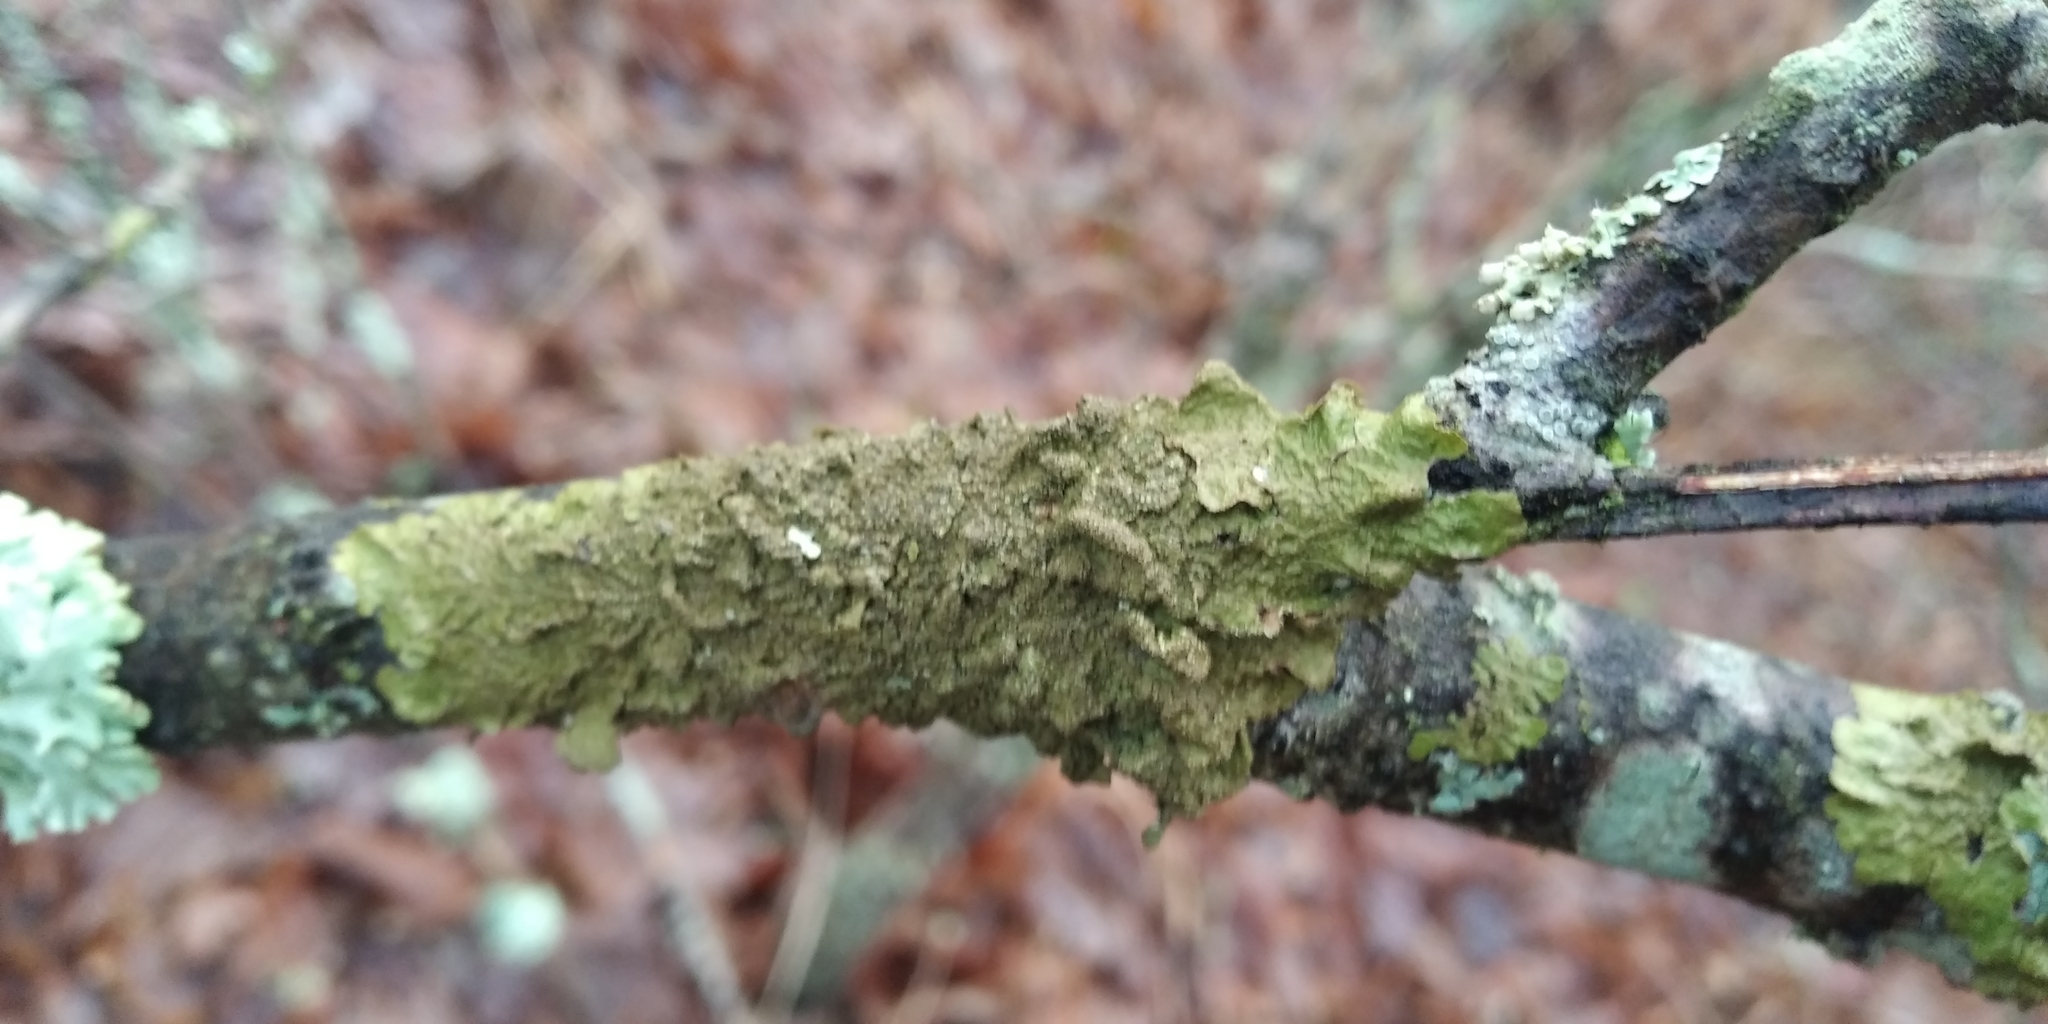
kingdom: Fungi
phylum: Ascomycota
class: Lecanoromycetes
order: Lecanorales
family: Parmeliaceae
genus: Melanelixia
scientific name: Melanelixia subaurifera
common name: Abraded camouflage lichen
